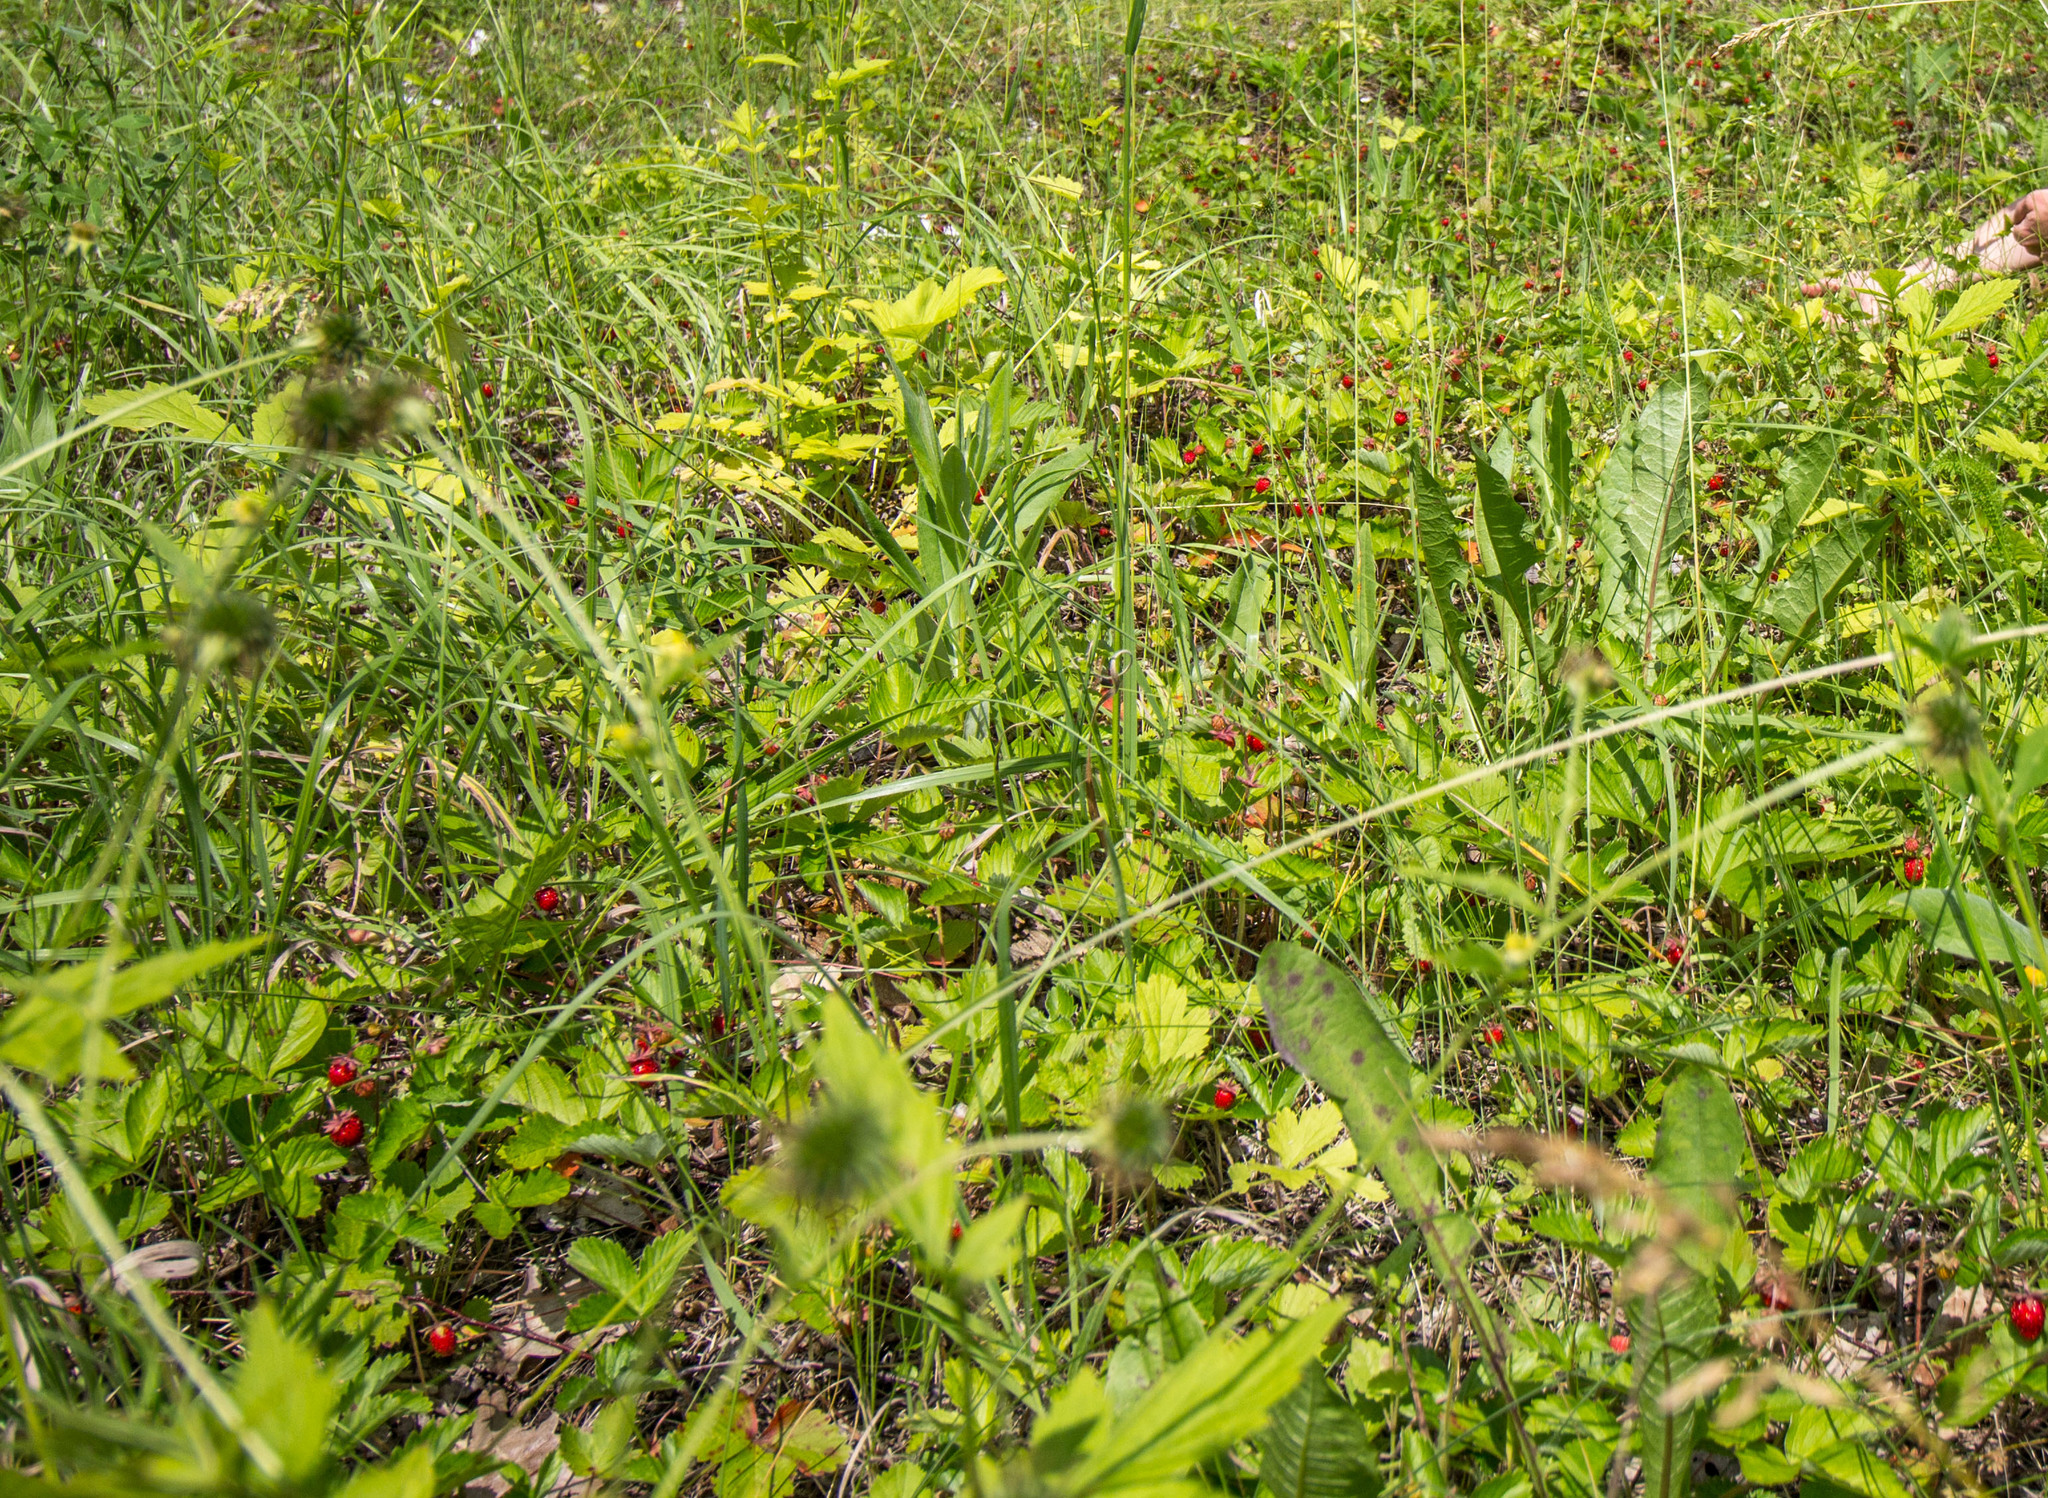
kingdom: Plantae
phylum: Tracheophyta
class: Magnoliopsida
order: Rosales
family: Rosaceae
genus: Fragaria
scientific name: Fragaria viridis
